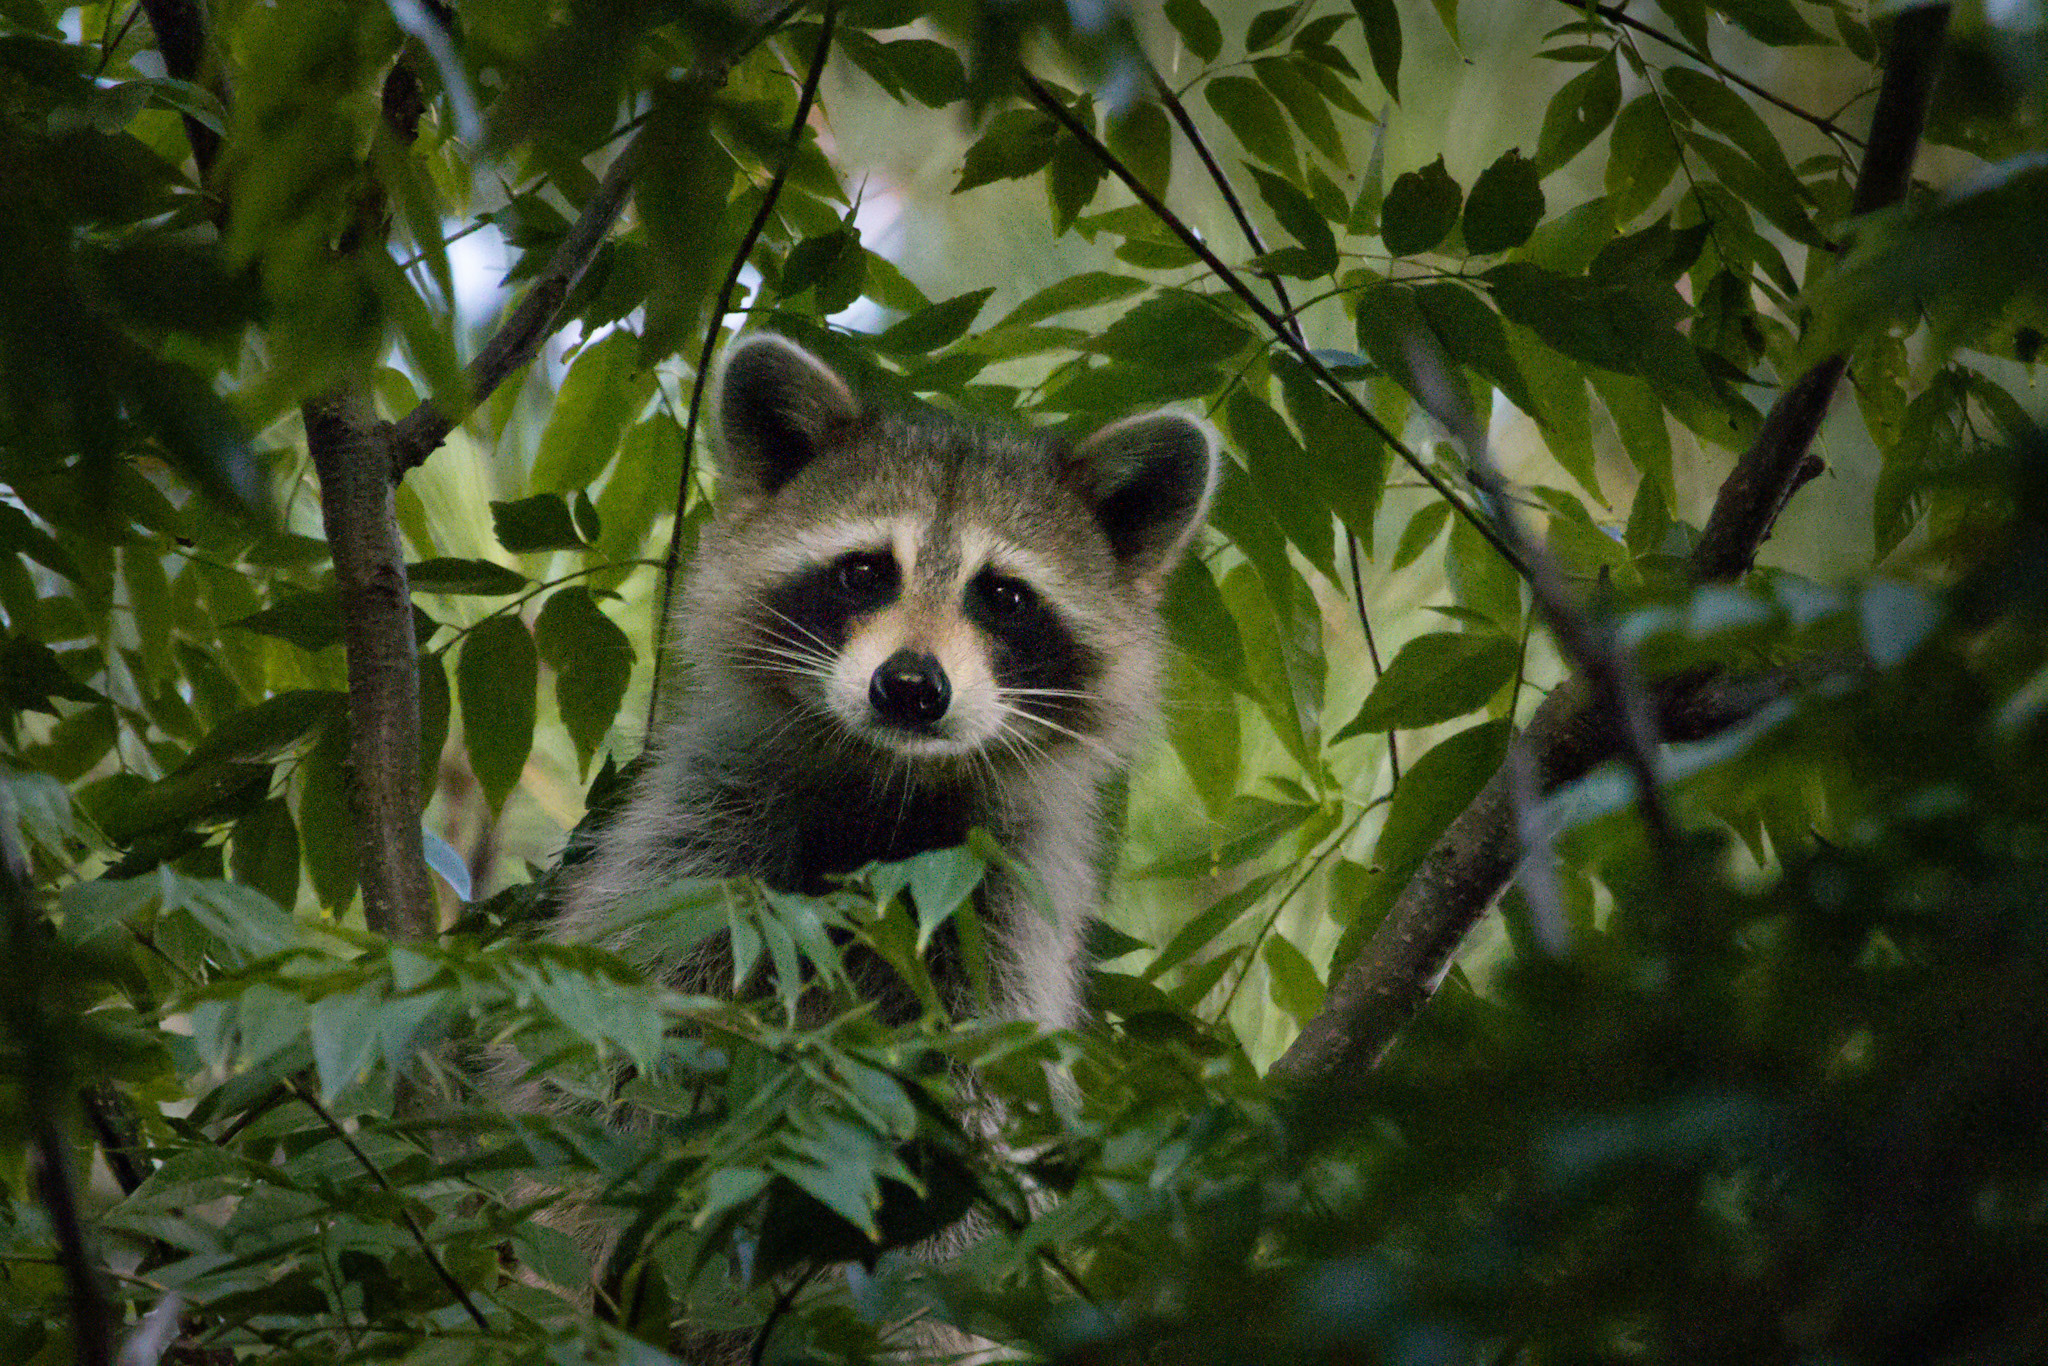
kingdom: Animalia
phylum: Chordata
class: Mammalia
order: Carnivora
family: Procyonidae
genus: Procyon
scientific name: Procyon lotor
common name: Raccoon
